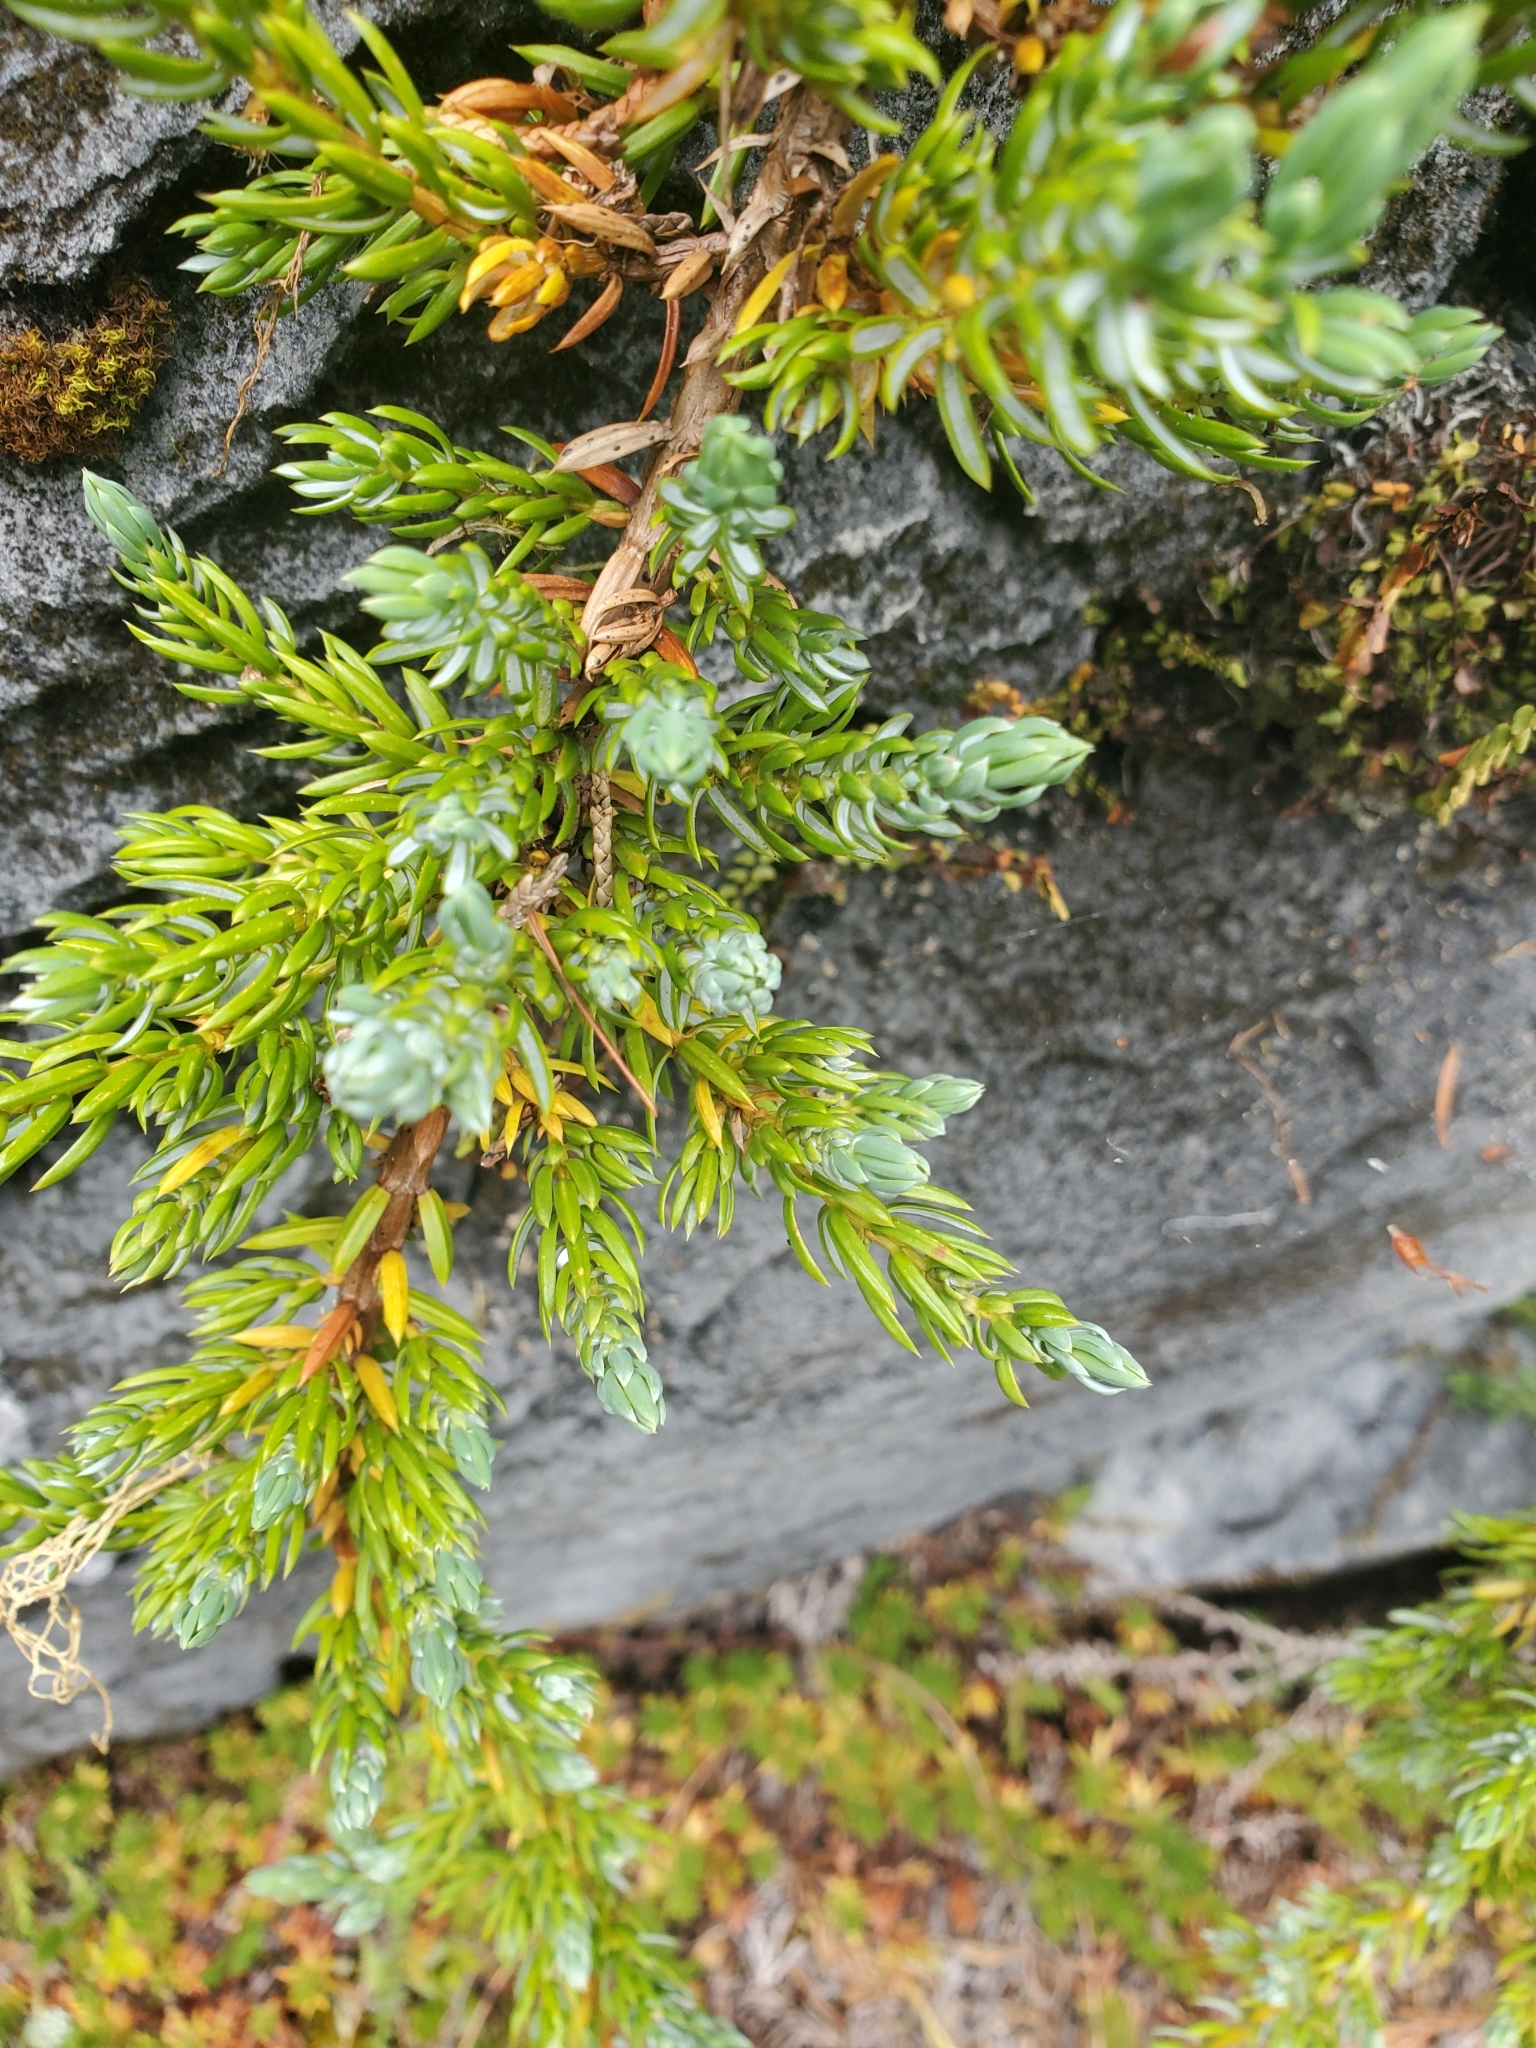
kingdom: Plantae
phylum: Tracheophyta
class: Pinopsida
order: Pinales
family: Cupressaceae
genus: Juniperus
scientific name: Juniperus communis
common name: Common juniper
